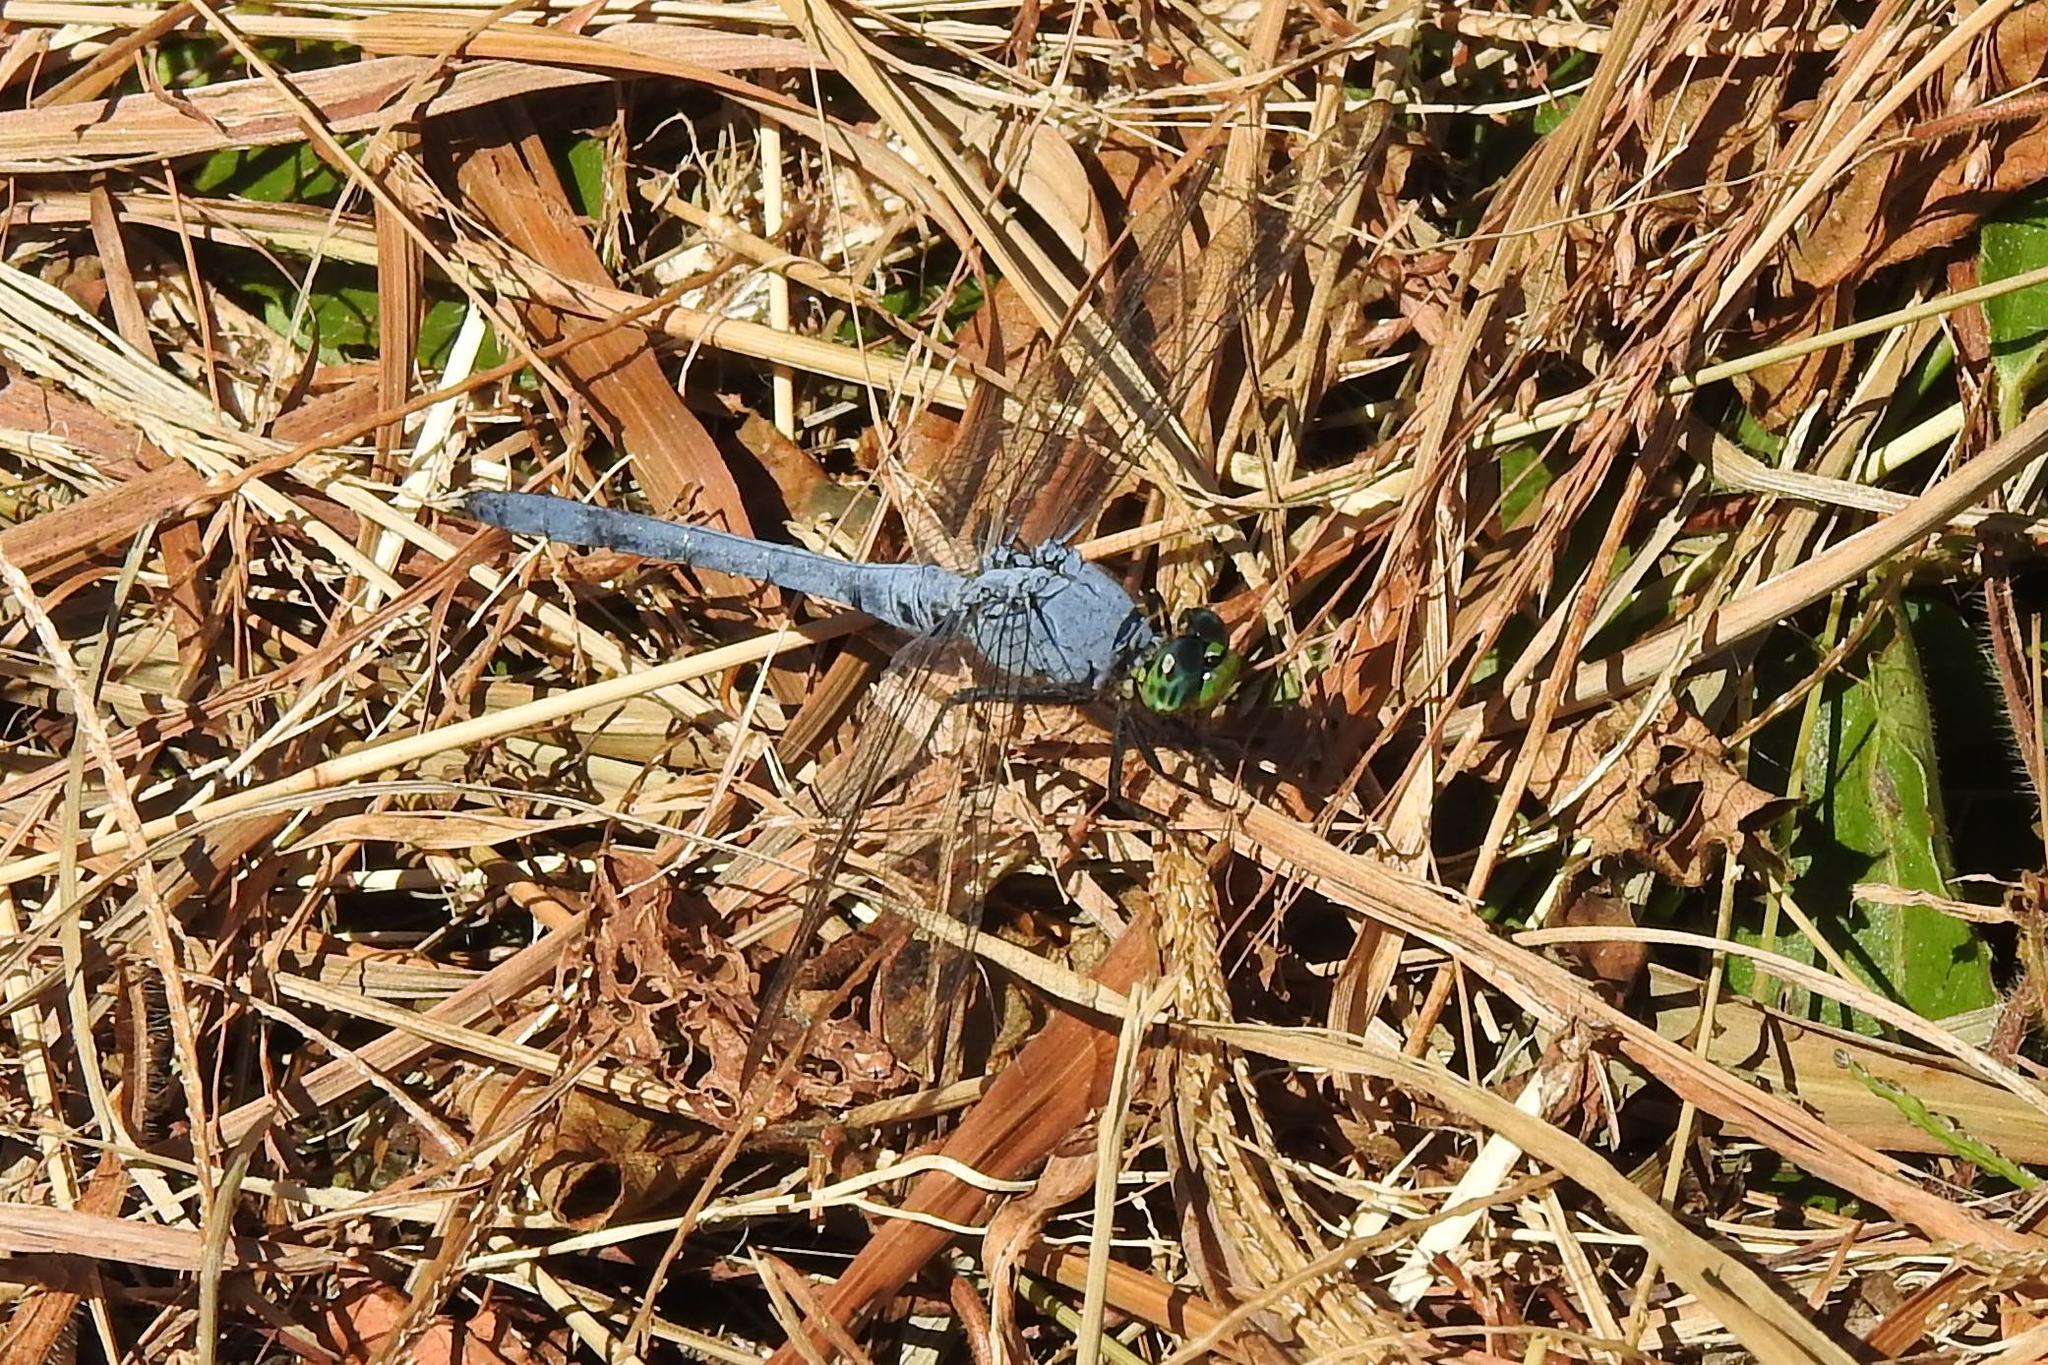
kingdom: Animalia
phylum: Arthropoda
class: Insecta
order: Odonata
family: Libellulidae
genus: Erythemis
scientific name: Erythemis simplicicollis
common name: Eastern pondhawk
